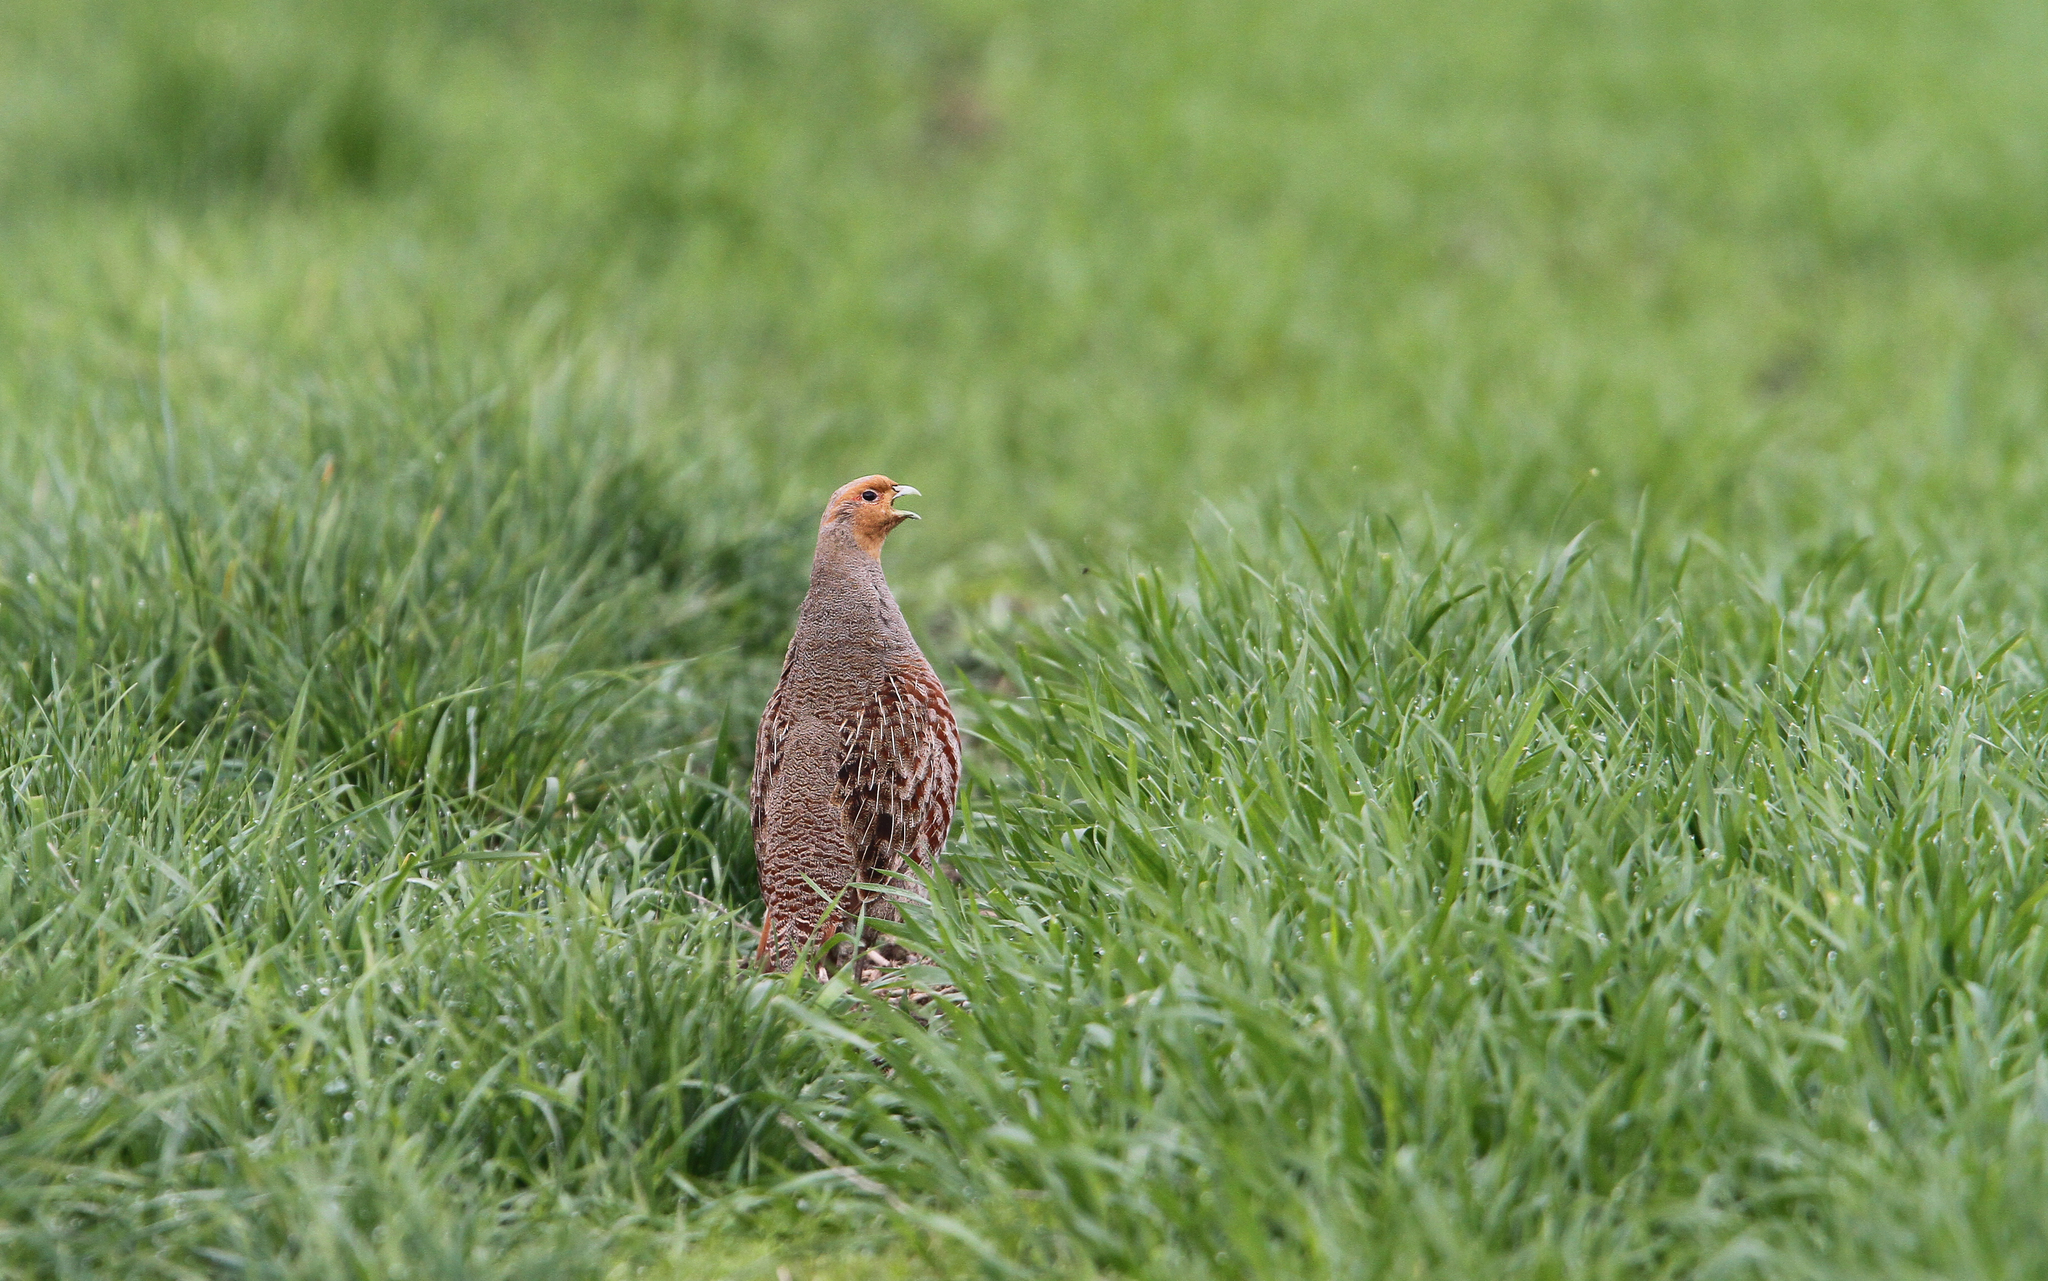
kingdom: Animalia
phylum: Chordata
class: Aves
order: Galliformes
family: Phasianidae
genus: Perdix
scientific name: Perdix perdix
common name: Grey partridge
